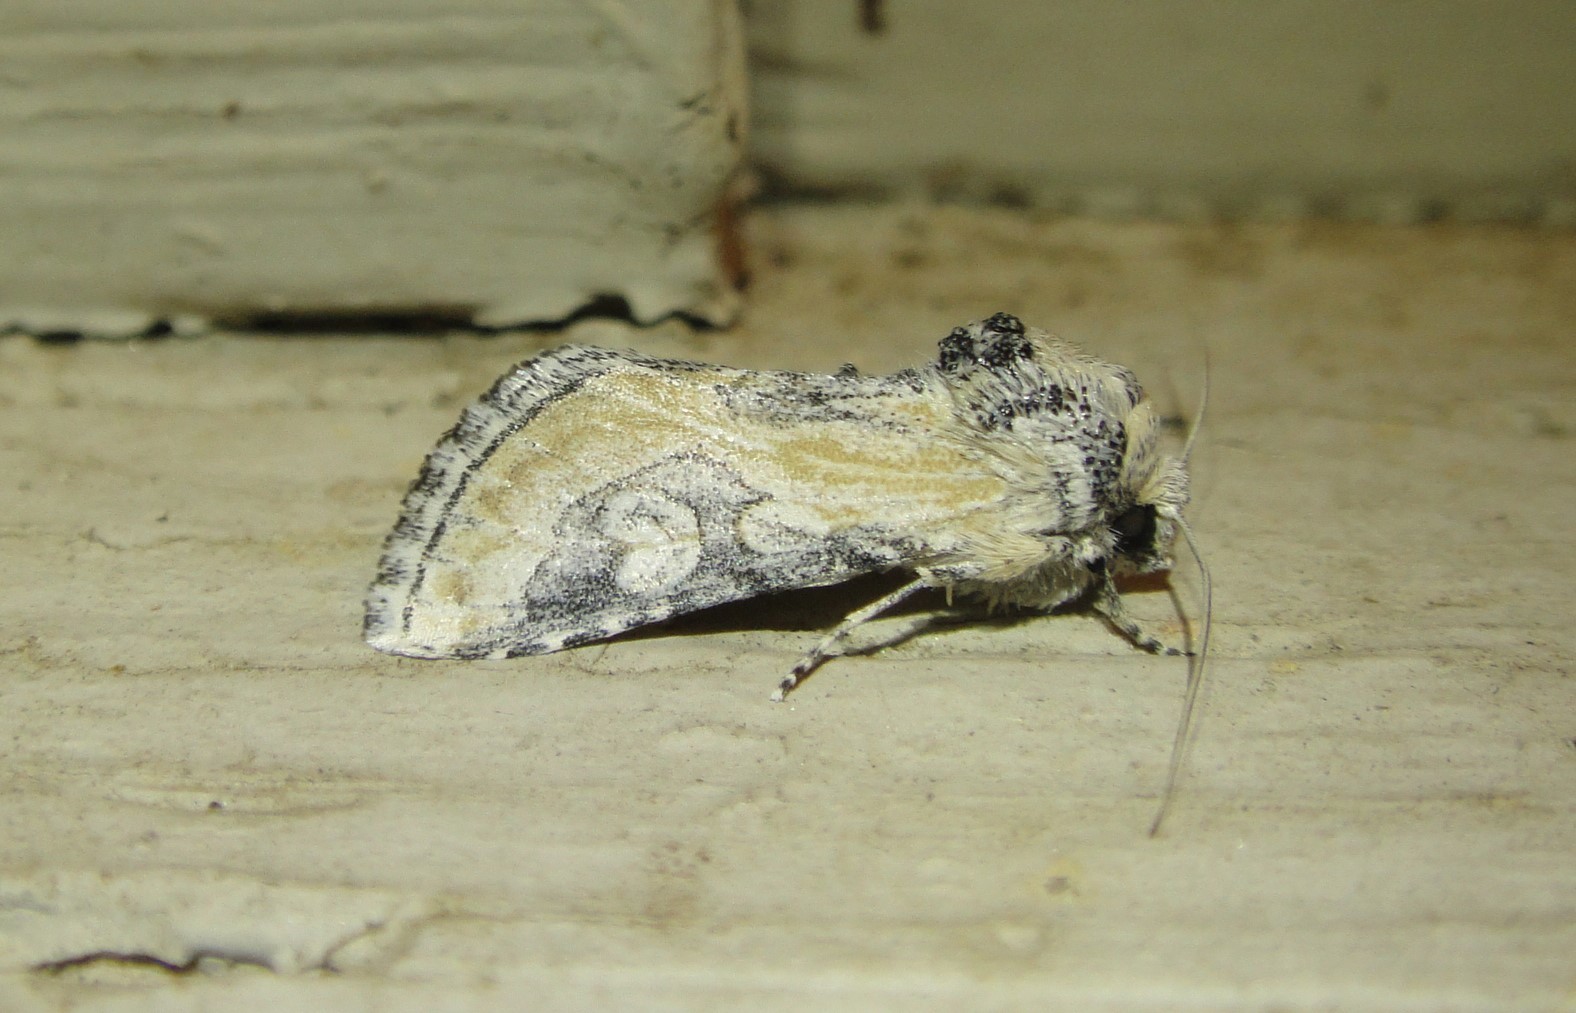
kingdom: Animalia
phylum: Arthropoda
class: Insecta
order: Lepidoptera
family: Noctuidae
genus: Crimona
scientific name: Crimona pallimedia
